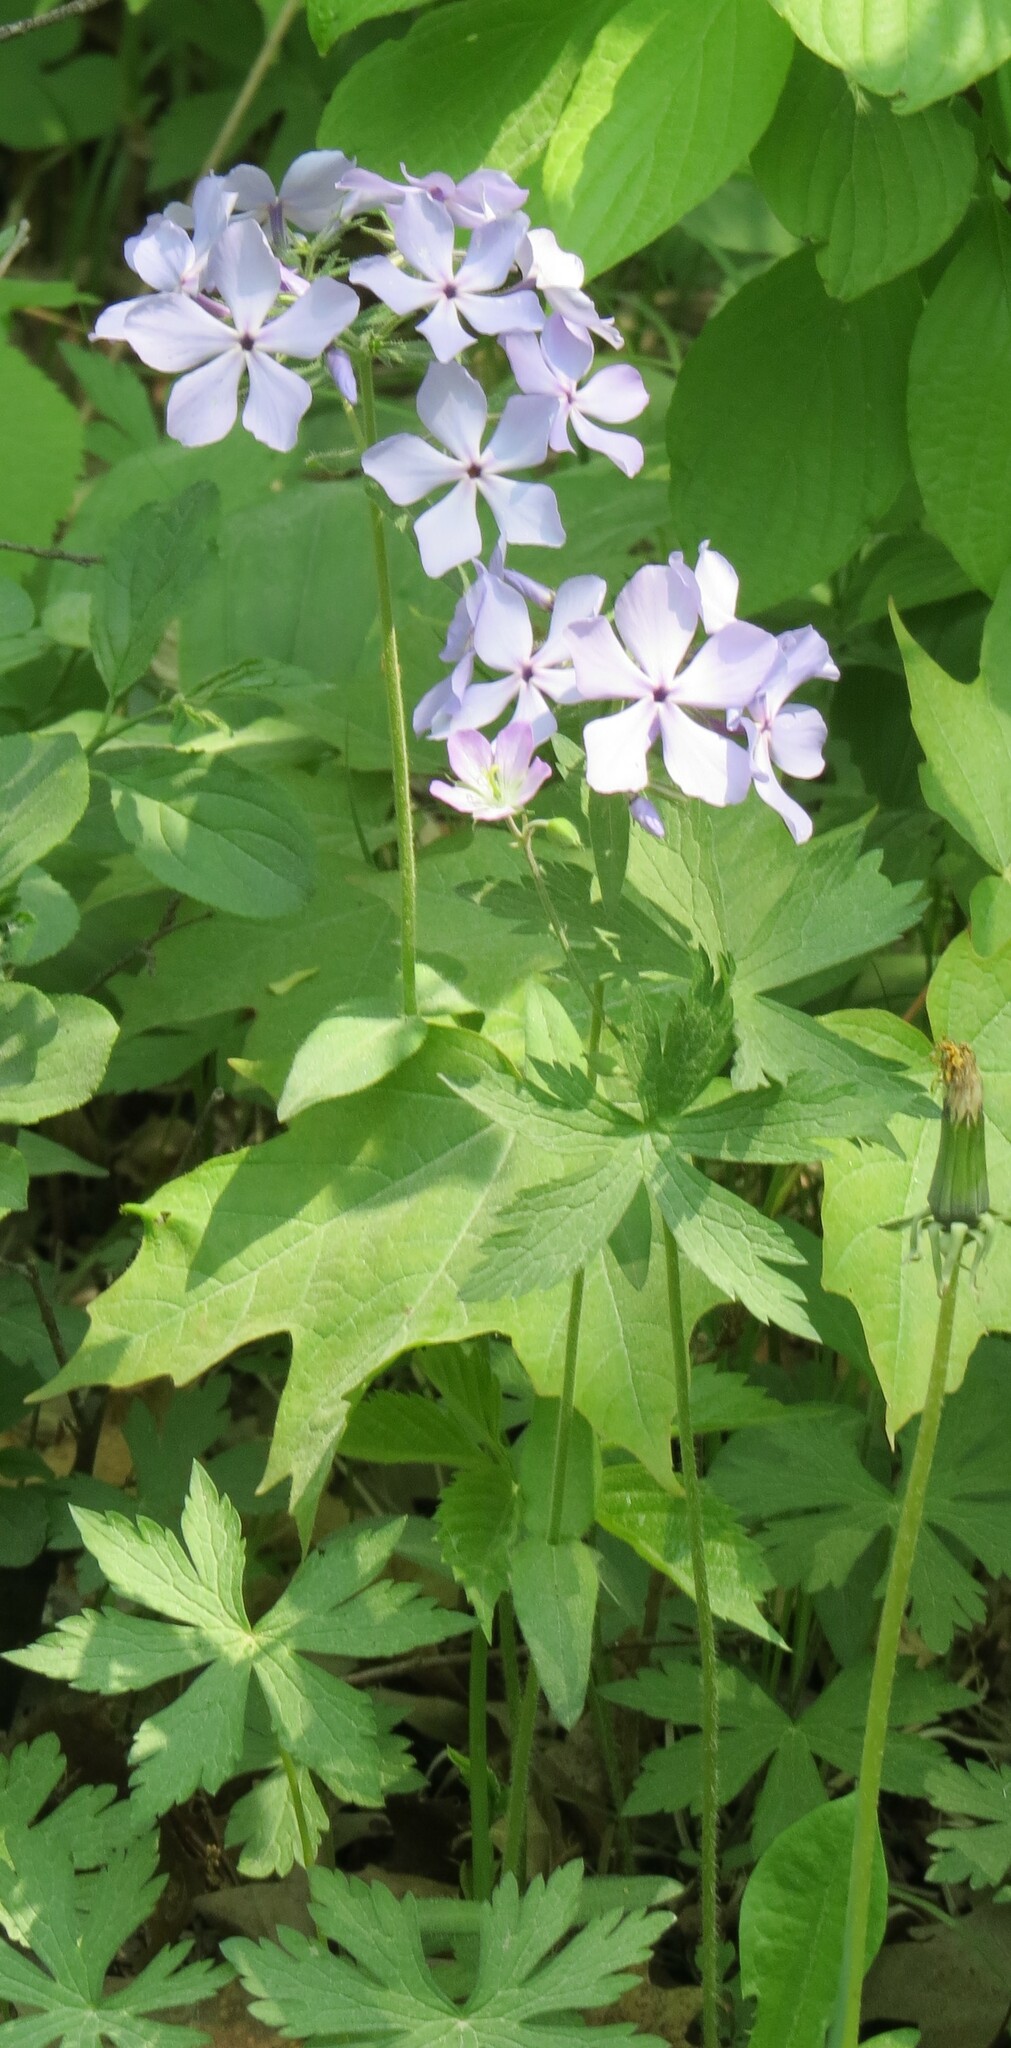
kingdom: Plantae
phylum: Tracheophyta
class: Magnoliopsida
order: Ericales
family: Polemoniaceae
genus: Phlox
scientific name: Phlox divaricata
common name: Blue phlox
